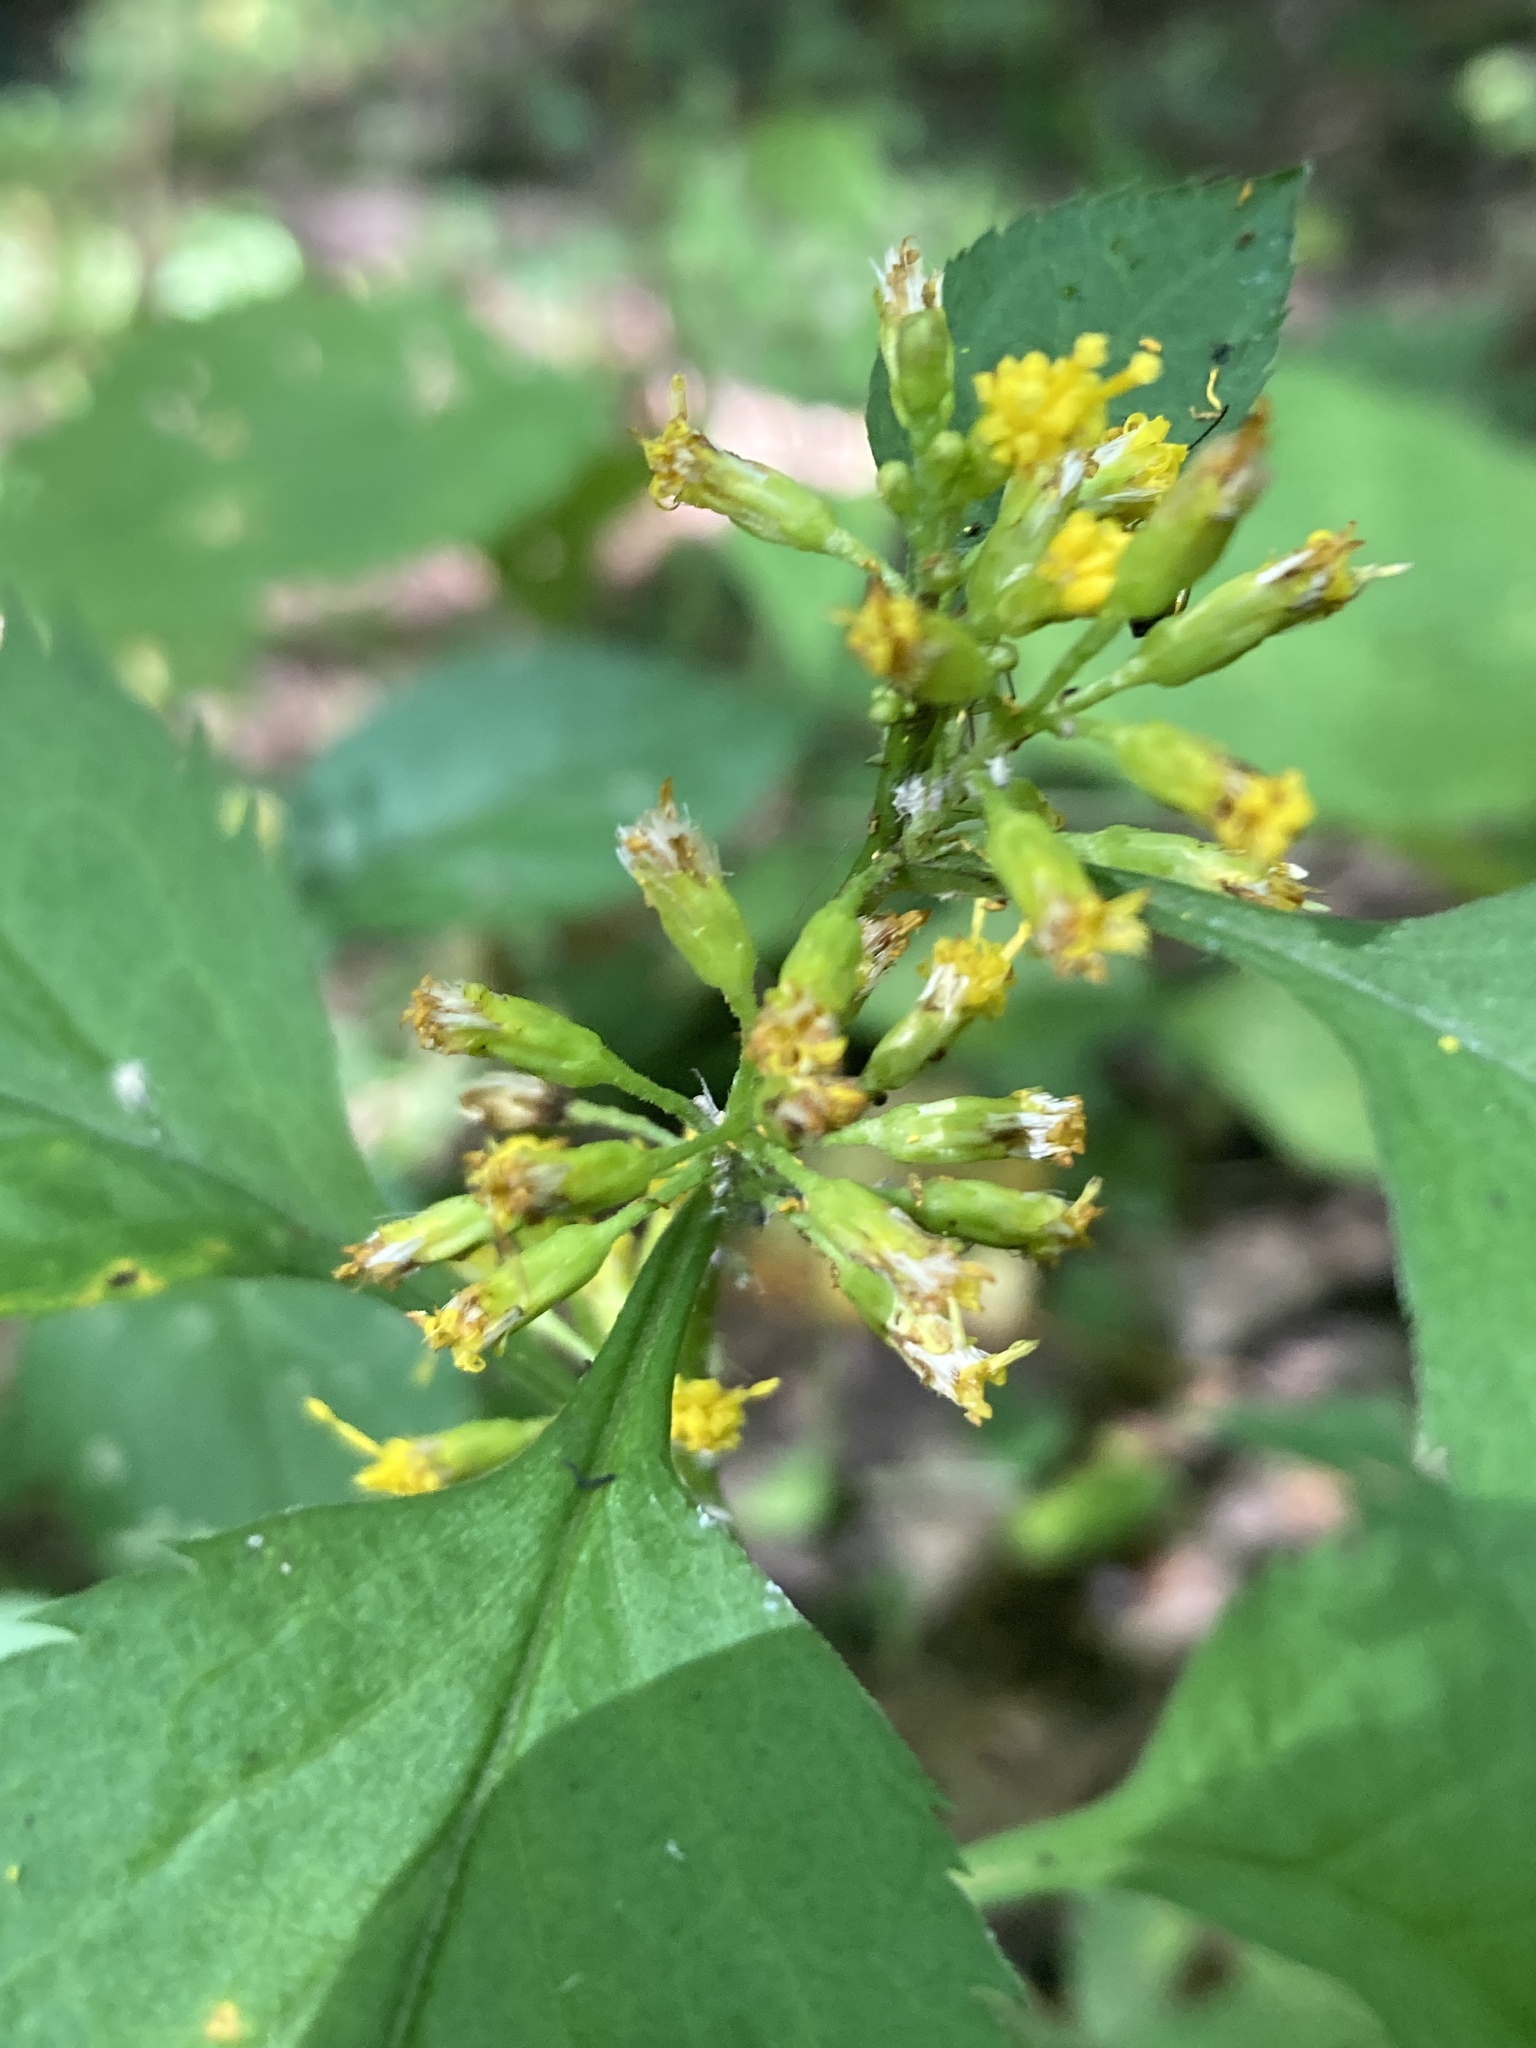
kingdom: Plantae
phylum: Tracheophyta
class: Magnoliopsida
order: Asterales
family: Asteraceae
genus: Solidago
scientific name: Solidago flexicaulis
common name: Zig-zag goldenrod
